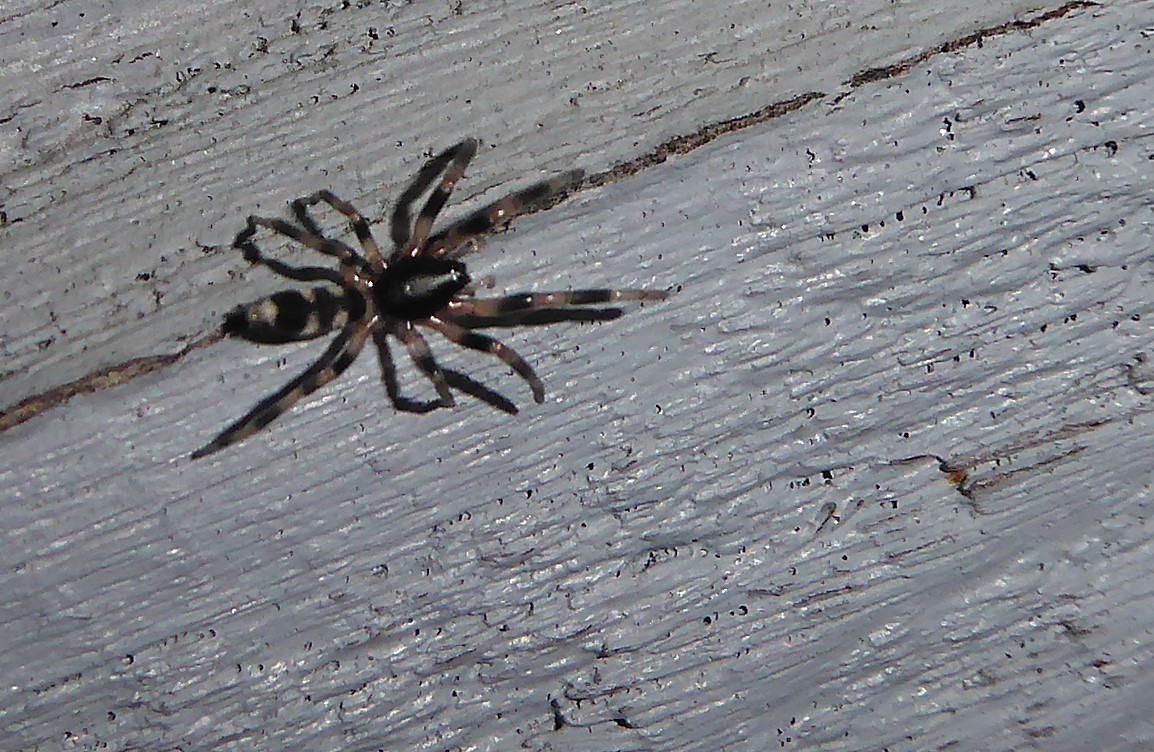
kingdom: Animalia
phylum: Arthropoda
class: Arachnida
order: Araneae
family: Lamponidae
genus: Lampona
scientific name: Lampona cylindrata
